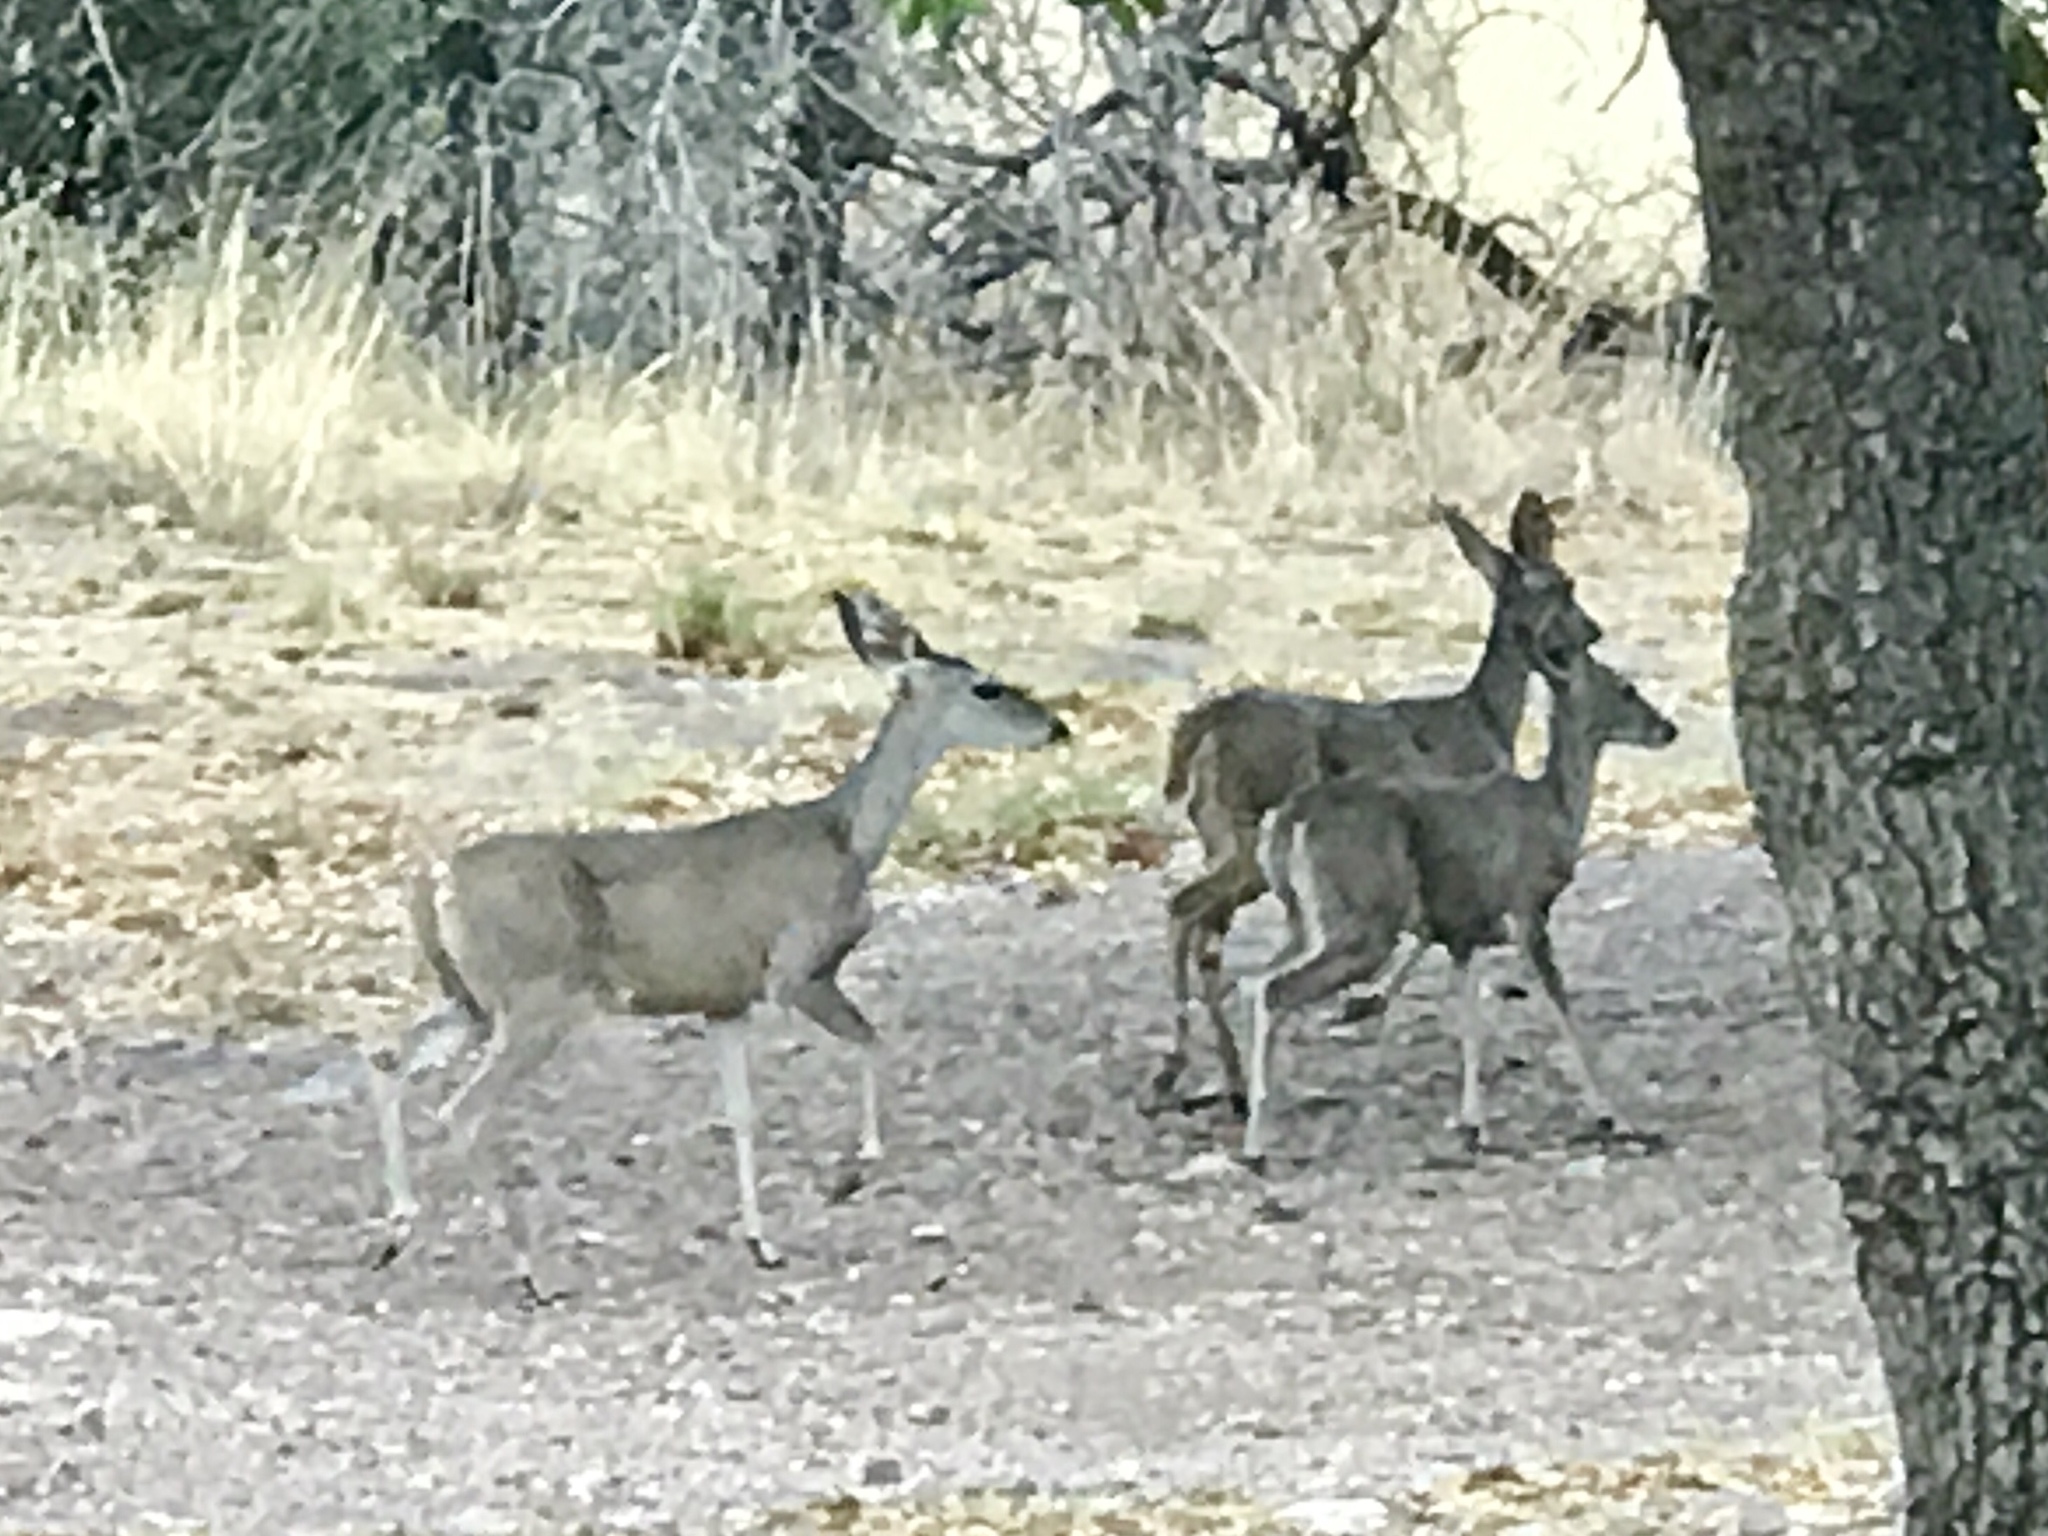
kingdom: Animalia
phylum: Chordata
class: Mammalia
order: Artiodactyla
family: Cervidae
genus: Odocoileus
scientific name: Odocoileus virginianus
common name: White-tailed deer
